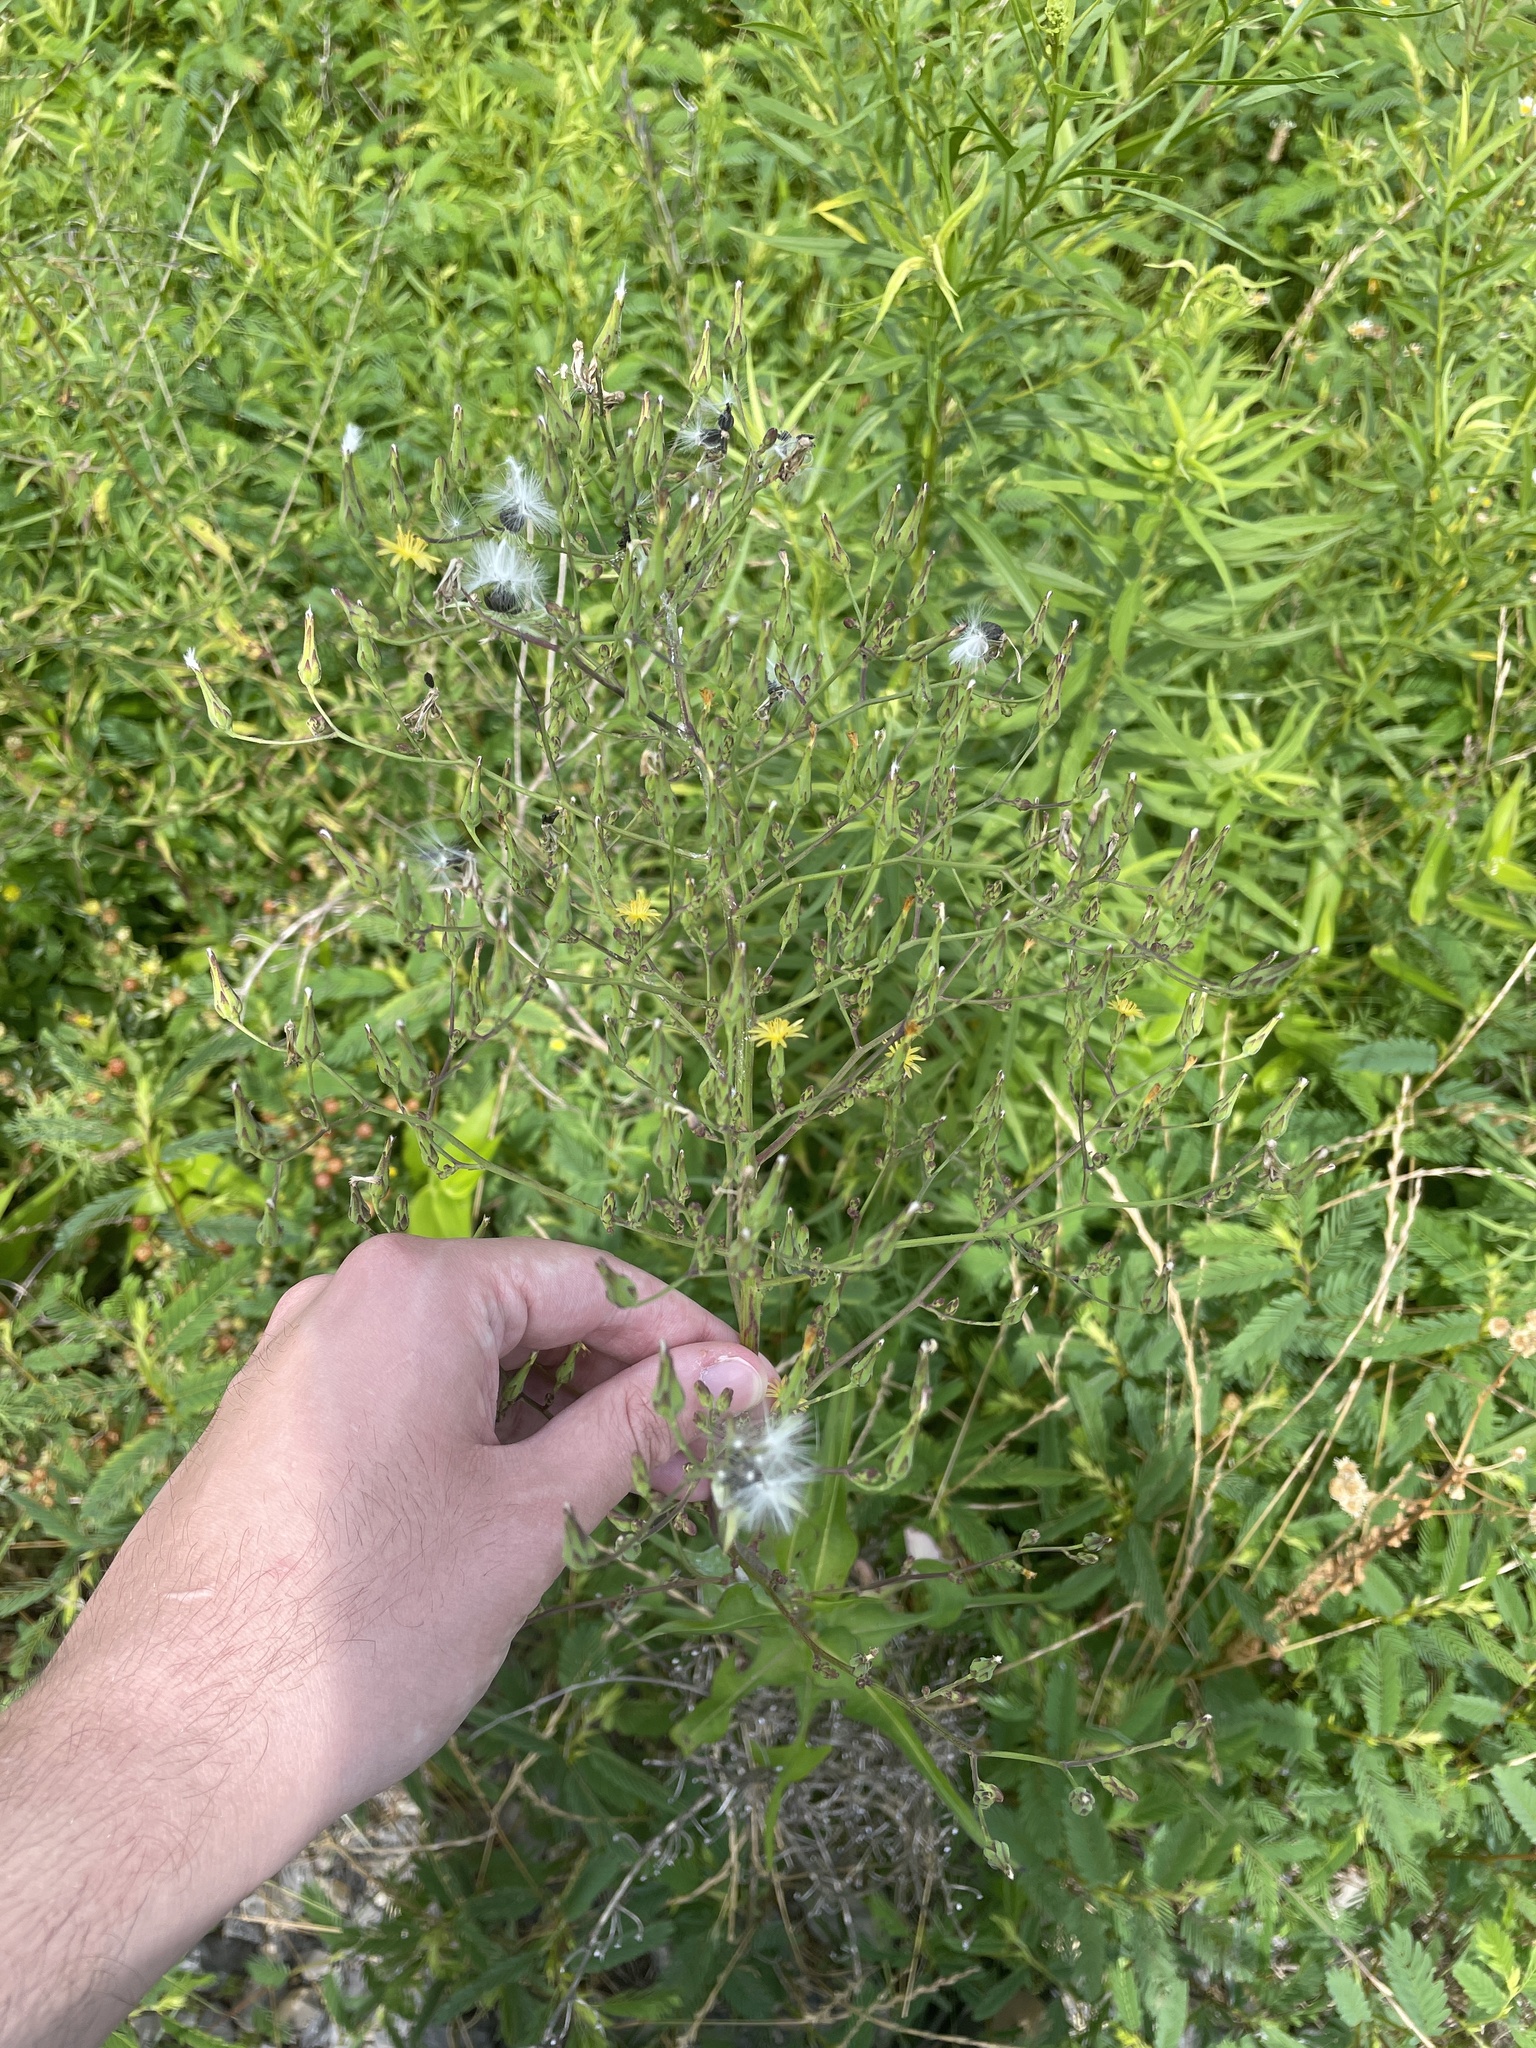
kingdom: Plantae
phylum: Tracheophyta
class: Magnoliopsida
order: Asterales
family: Asteraceae
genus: Lactuca
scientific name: Lactuca canadensis
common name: Canada lettuce
